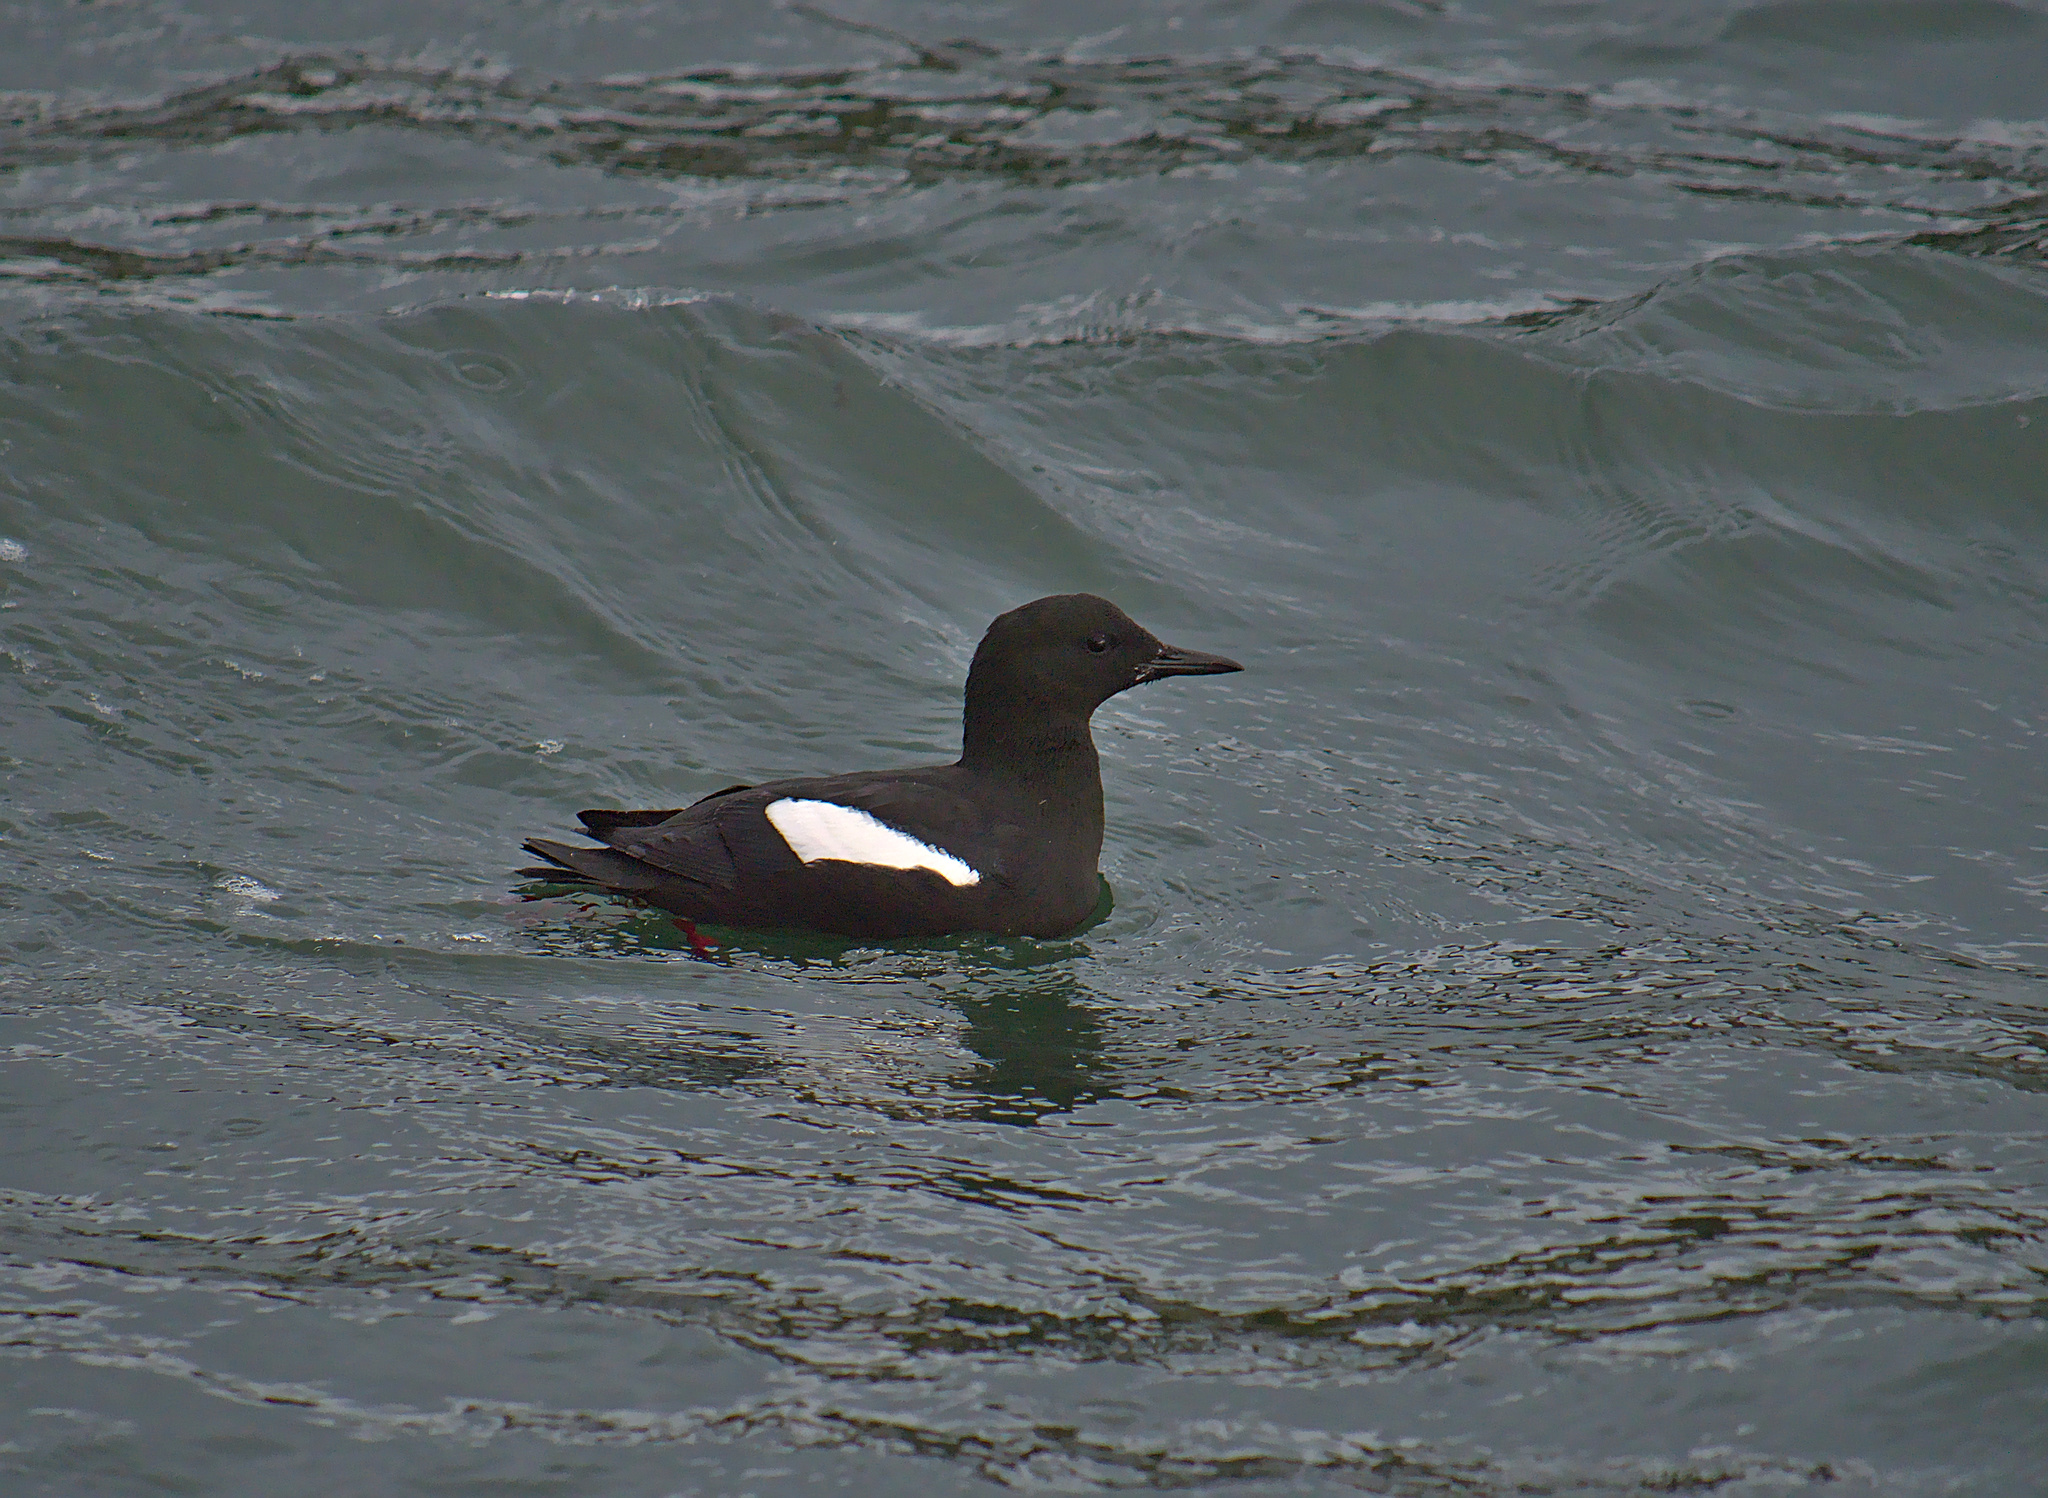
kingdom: Animalia
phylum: Chordata
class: Aves
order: Charadriiformes
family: Alcidae
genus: Cepphus
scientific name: Cepphus grylle
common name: Black guillemot
